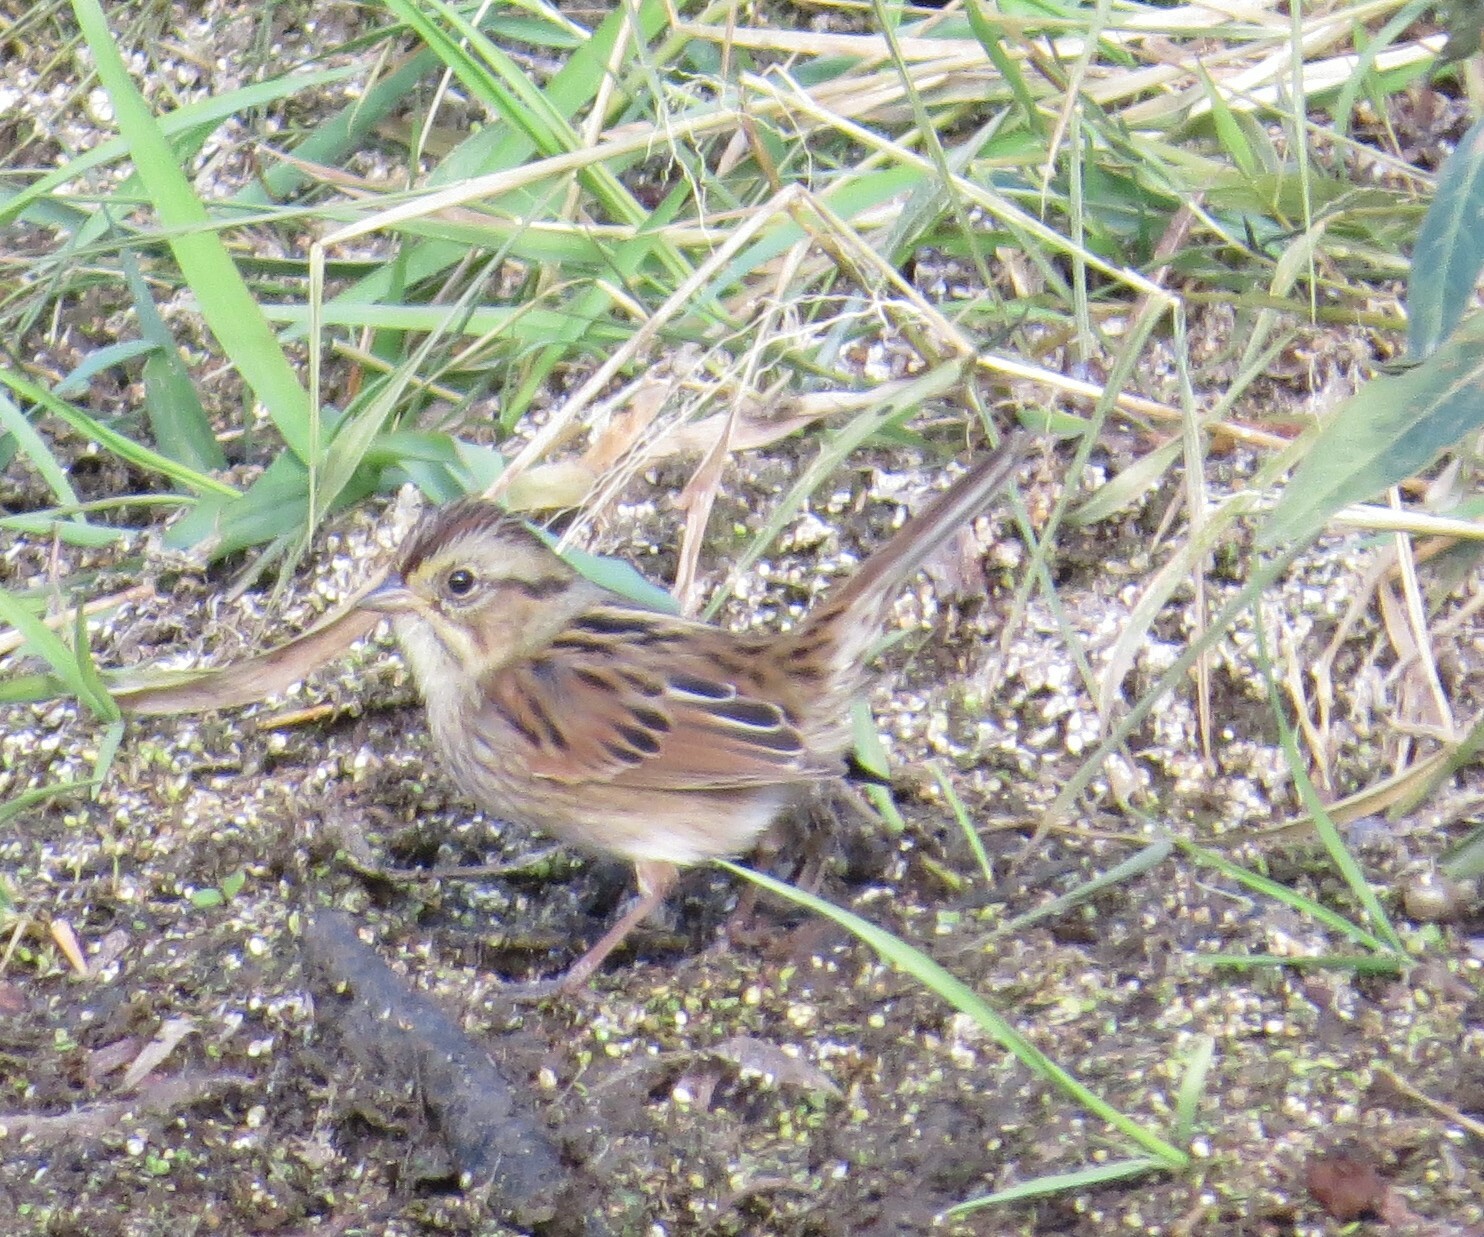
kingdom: Animalia
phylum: Chordata
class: Aves
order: Passeriformes
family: Passerellidae
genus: Melospiza
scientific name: Melospiza georgiana
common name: Swamp sparrow
